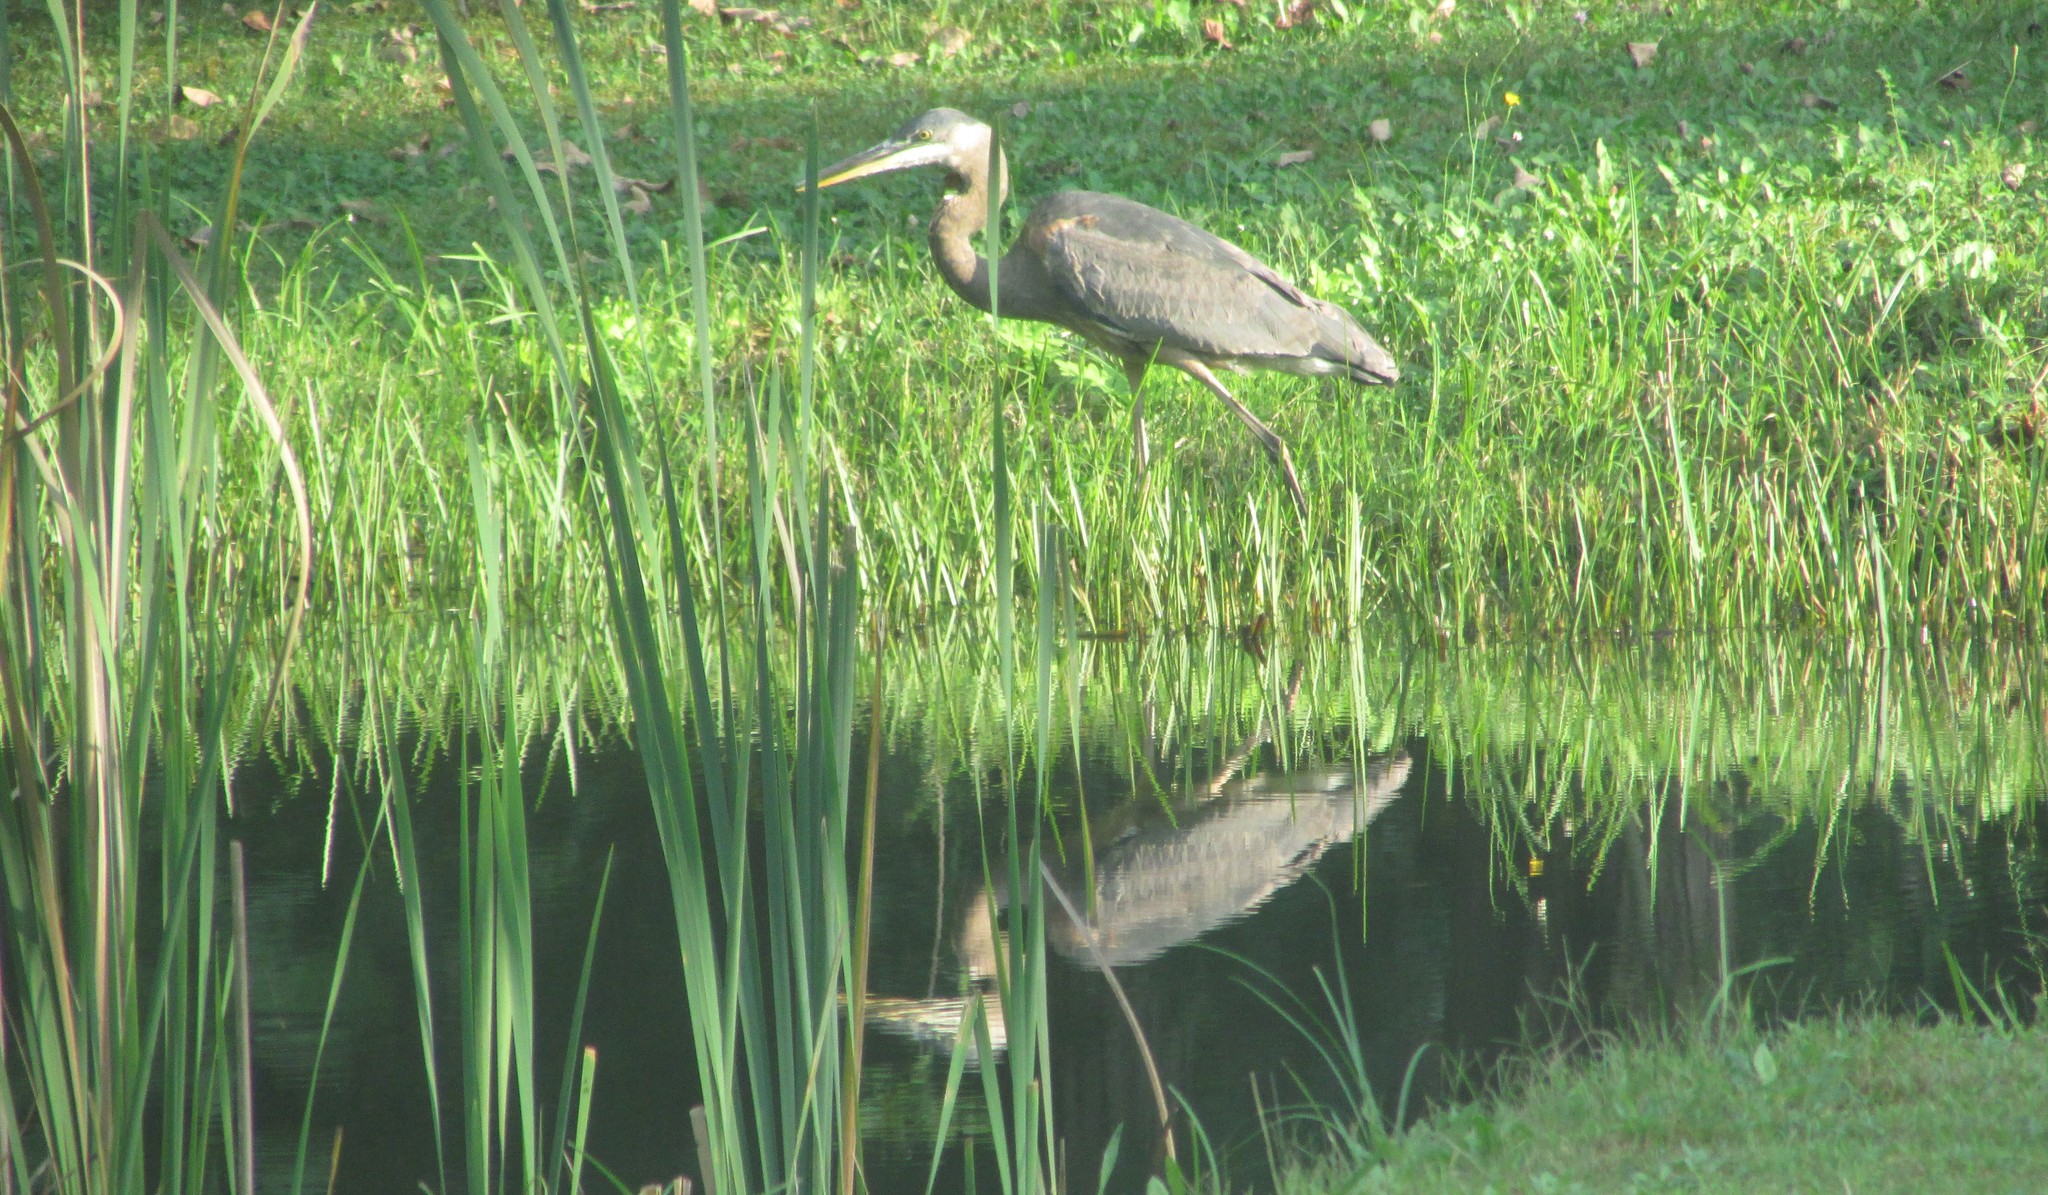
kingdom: Animalia
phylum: Chordata
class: Aves
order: Pelecaniformes
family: Ardeidae
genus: Ardea
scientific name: Ardea herodias
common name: Great blue heron
